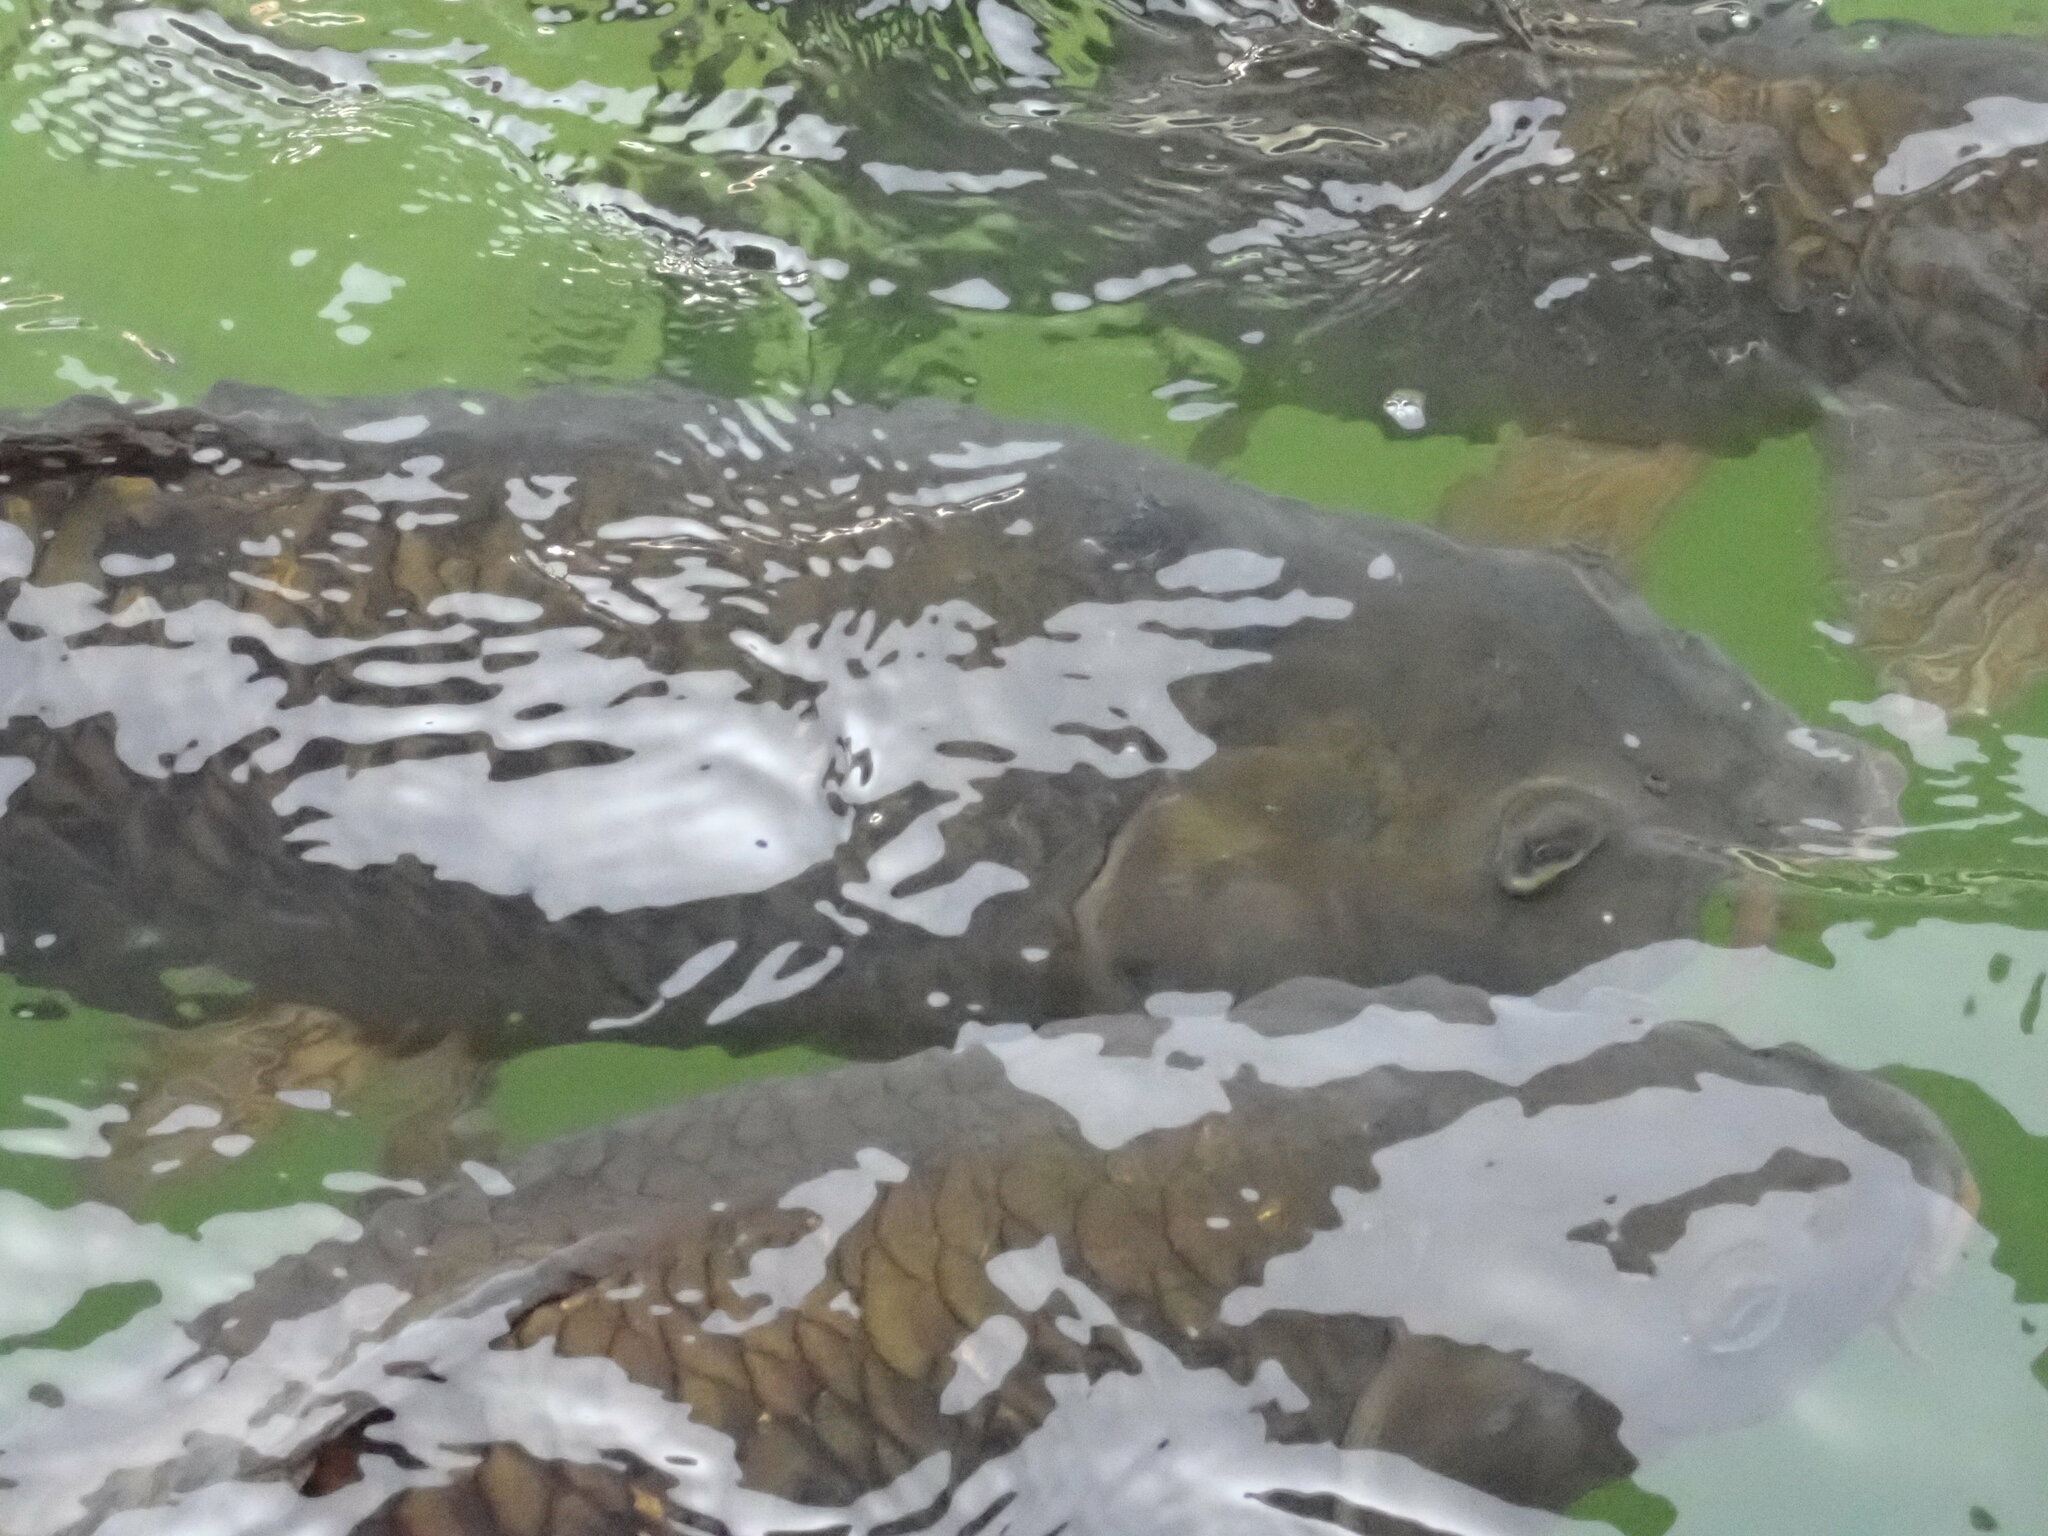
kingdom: Animalia
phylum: Chordata
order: Cypriniformes
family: Cyprinidae
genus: Cyprinus
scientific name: Cyprinus carpio
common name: Common carp
